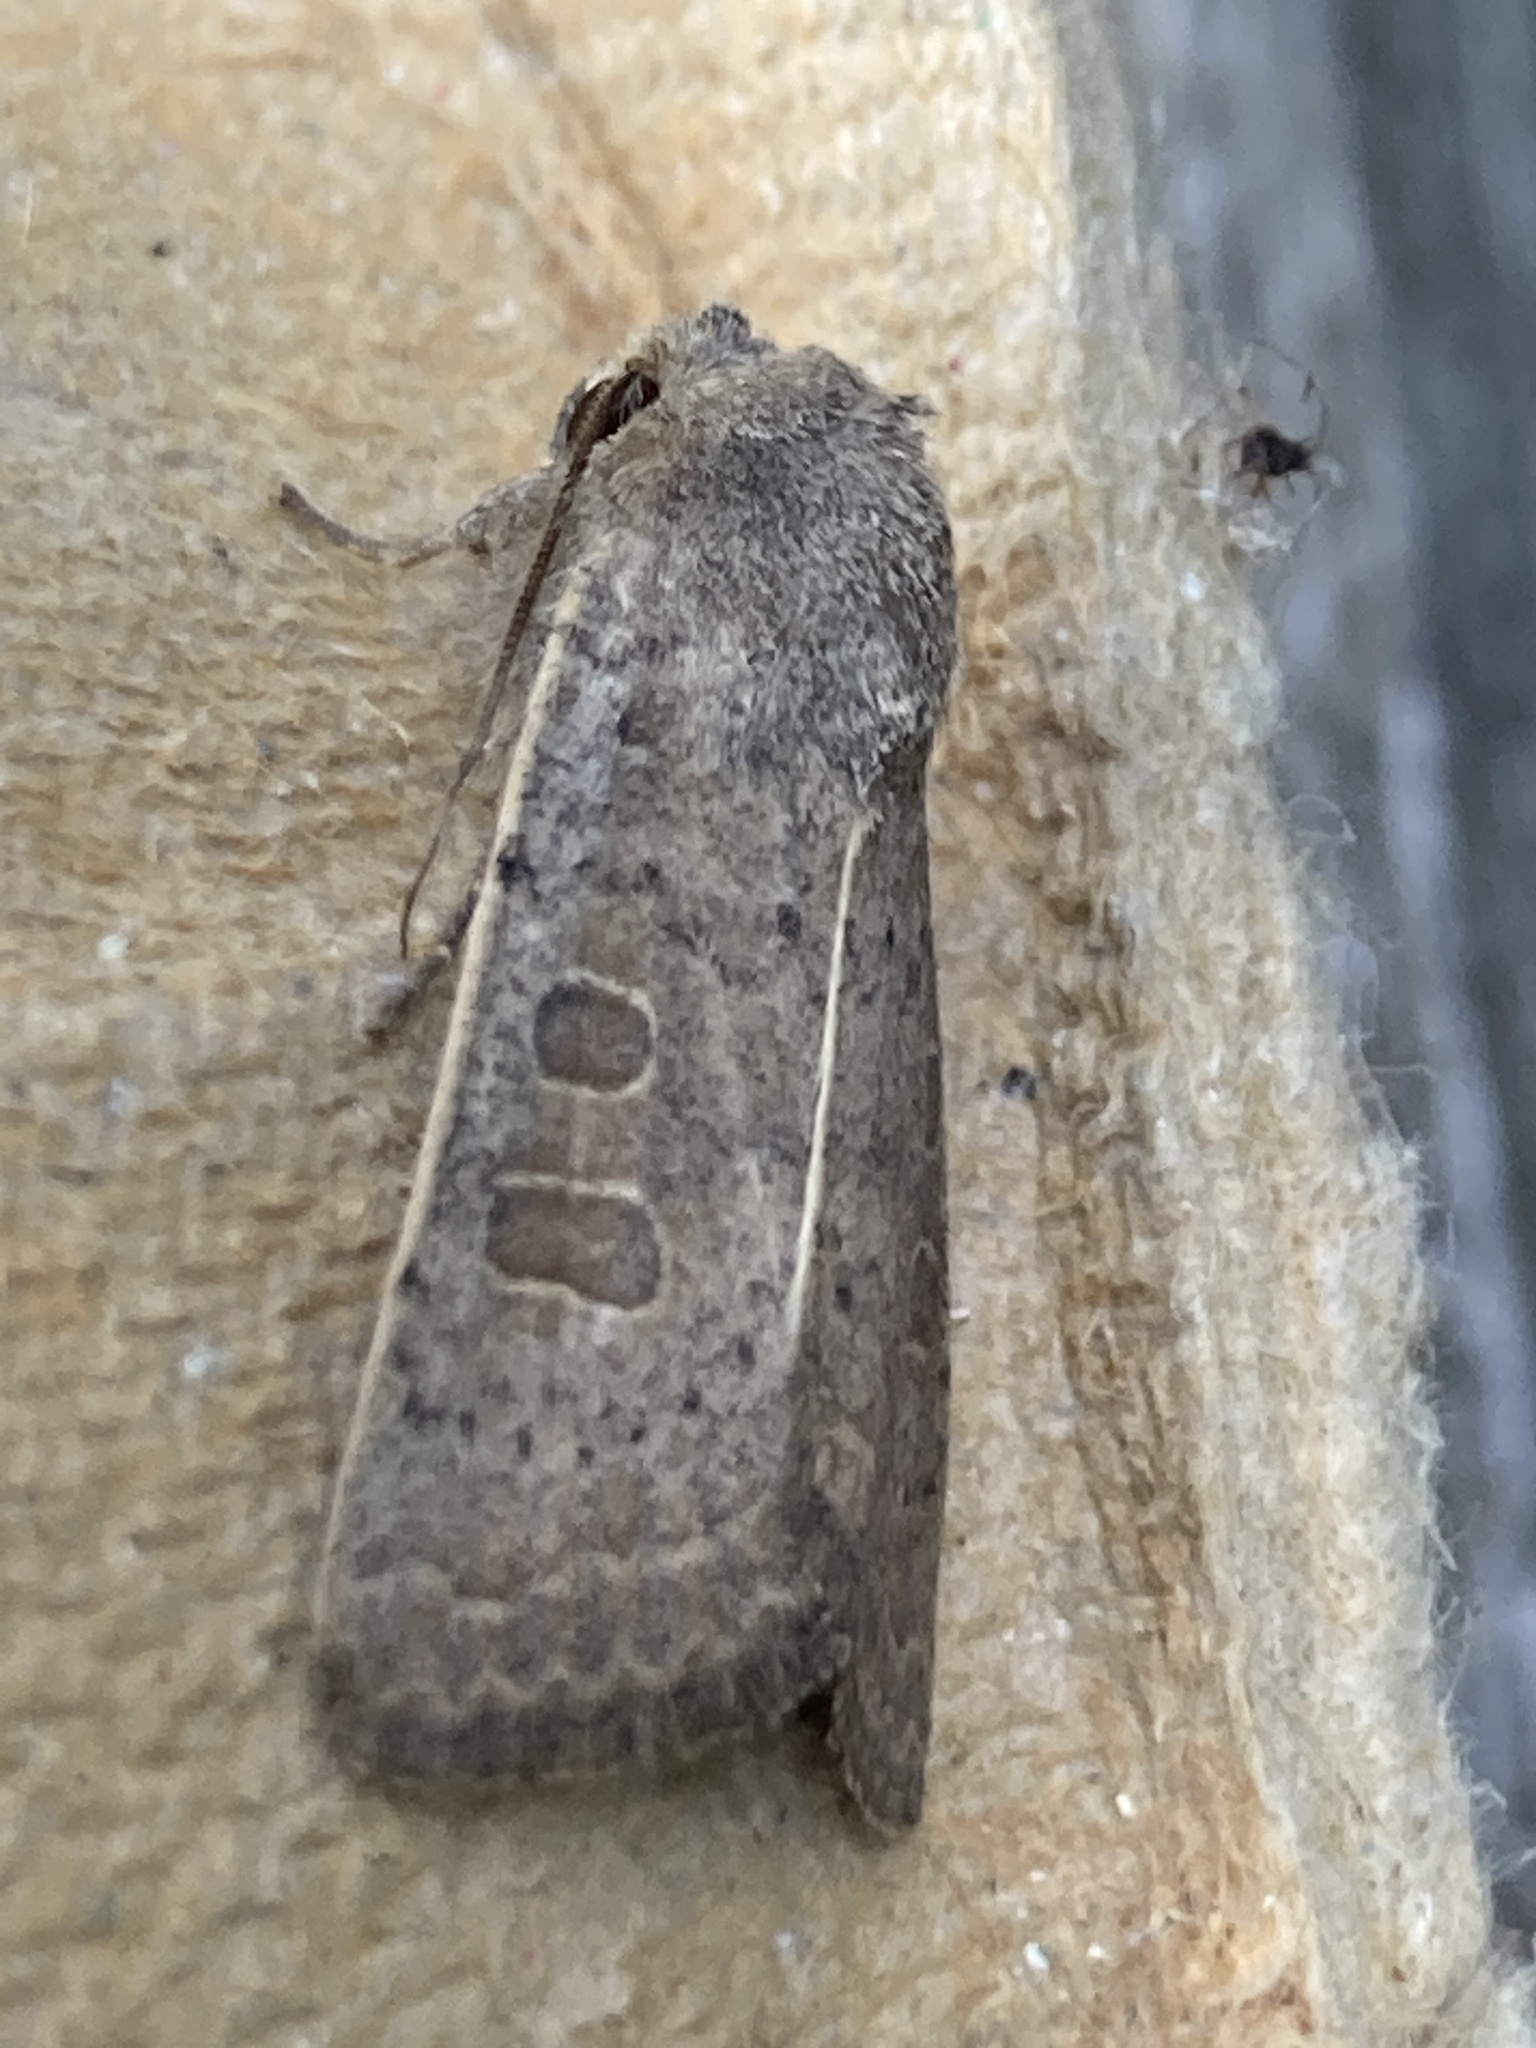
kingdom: Animalia
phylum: Arthropoda
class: Insecta
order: Lepidoptera
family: Noctuidae
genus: Hoplodrina
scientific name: Hoplodrina ambigua
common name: Vine's rustic
